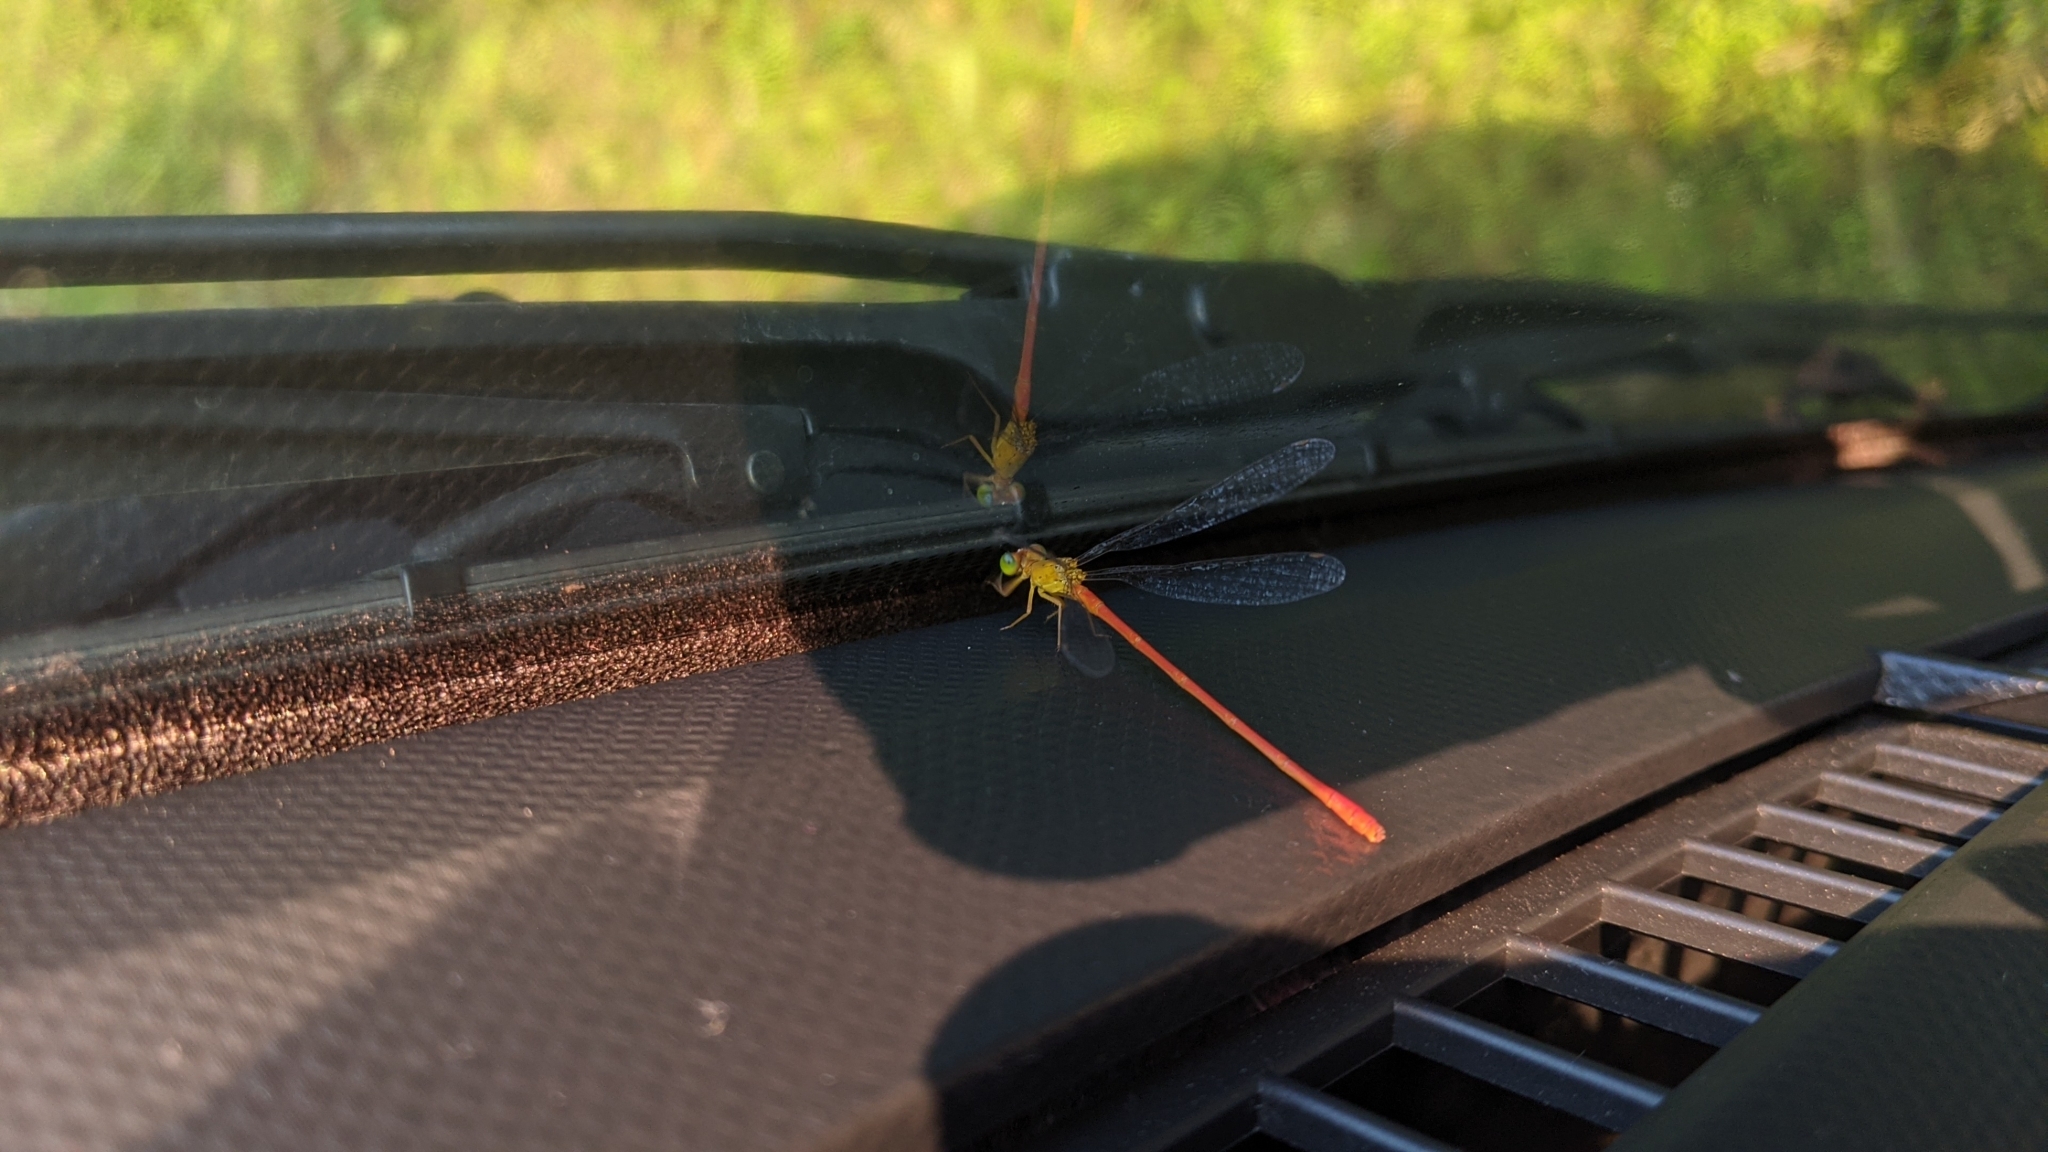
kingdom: Animalia
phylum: Arthropoda
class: Insecta
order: Odonata
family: Coenagrionidae
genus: Ceriagrion
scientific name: Ceriagrion auranticum
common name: Orange-tailed sprite
